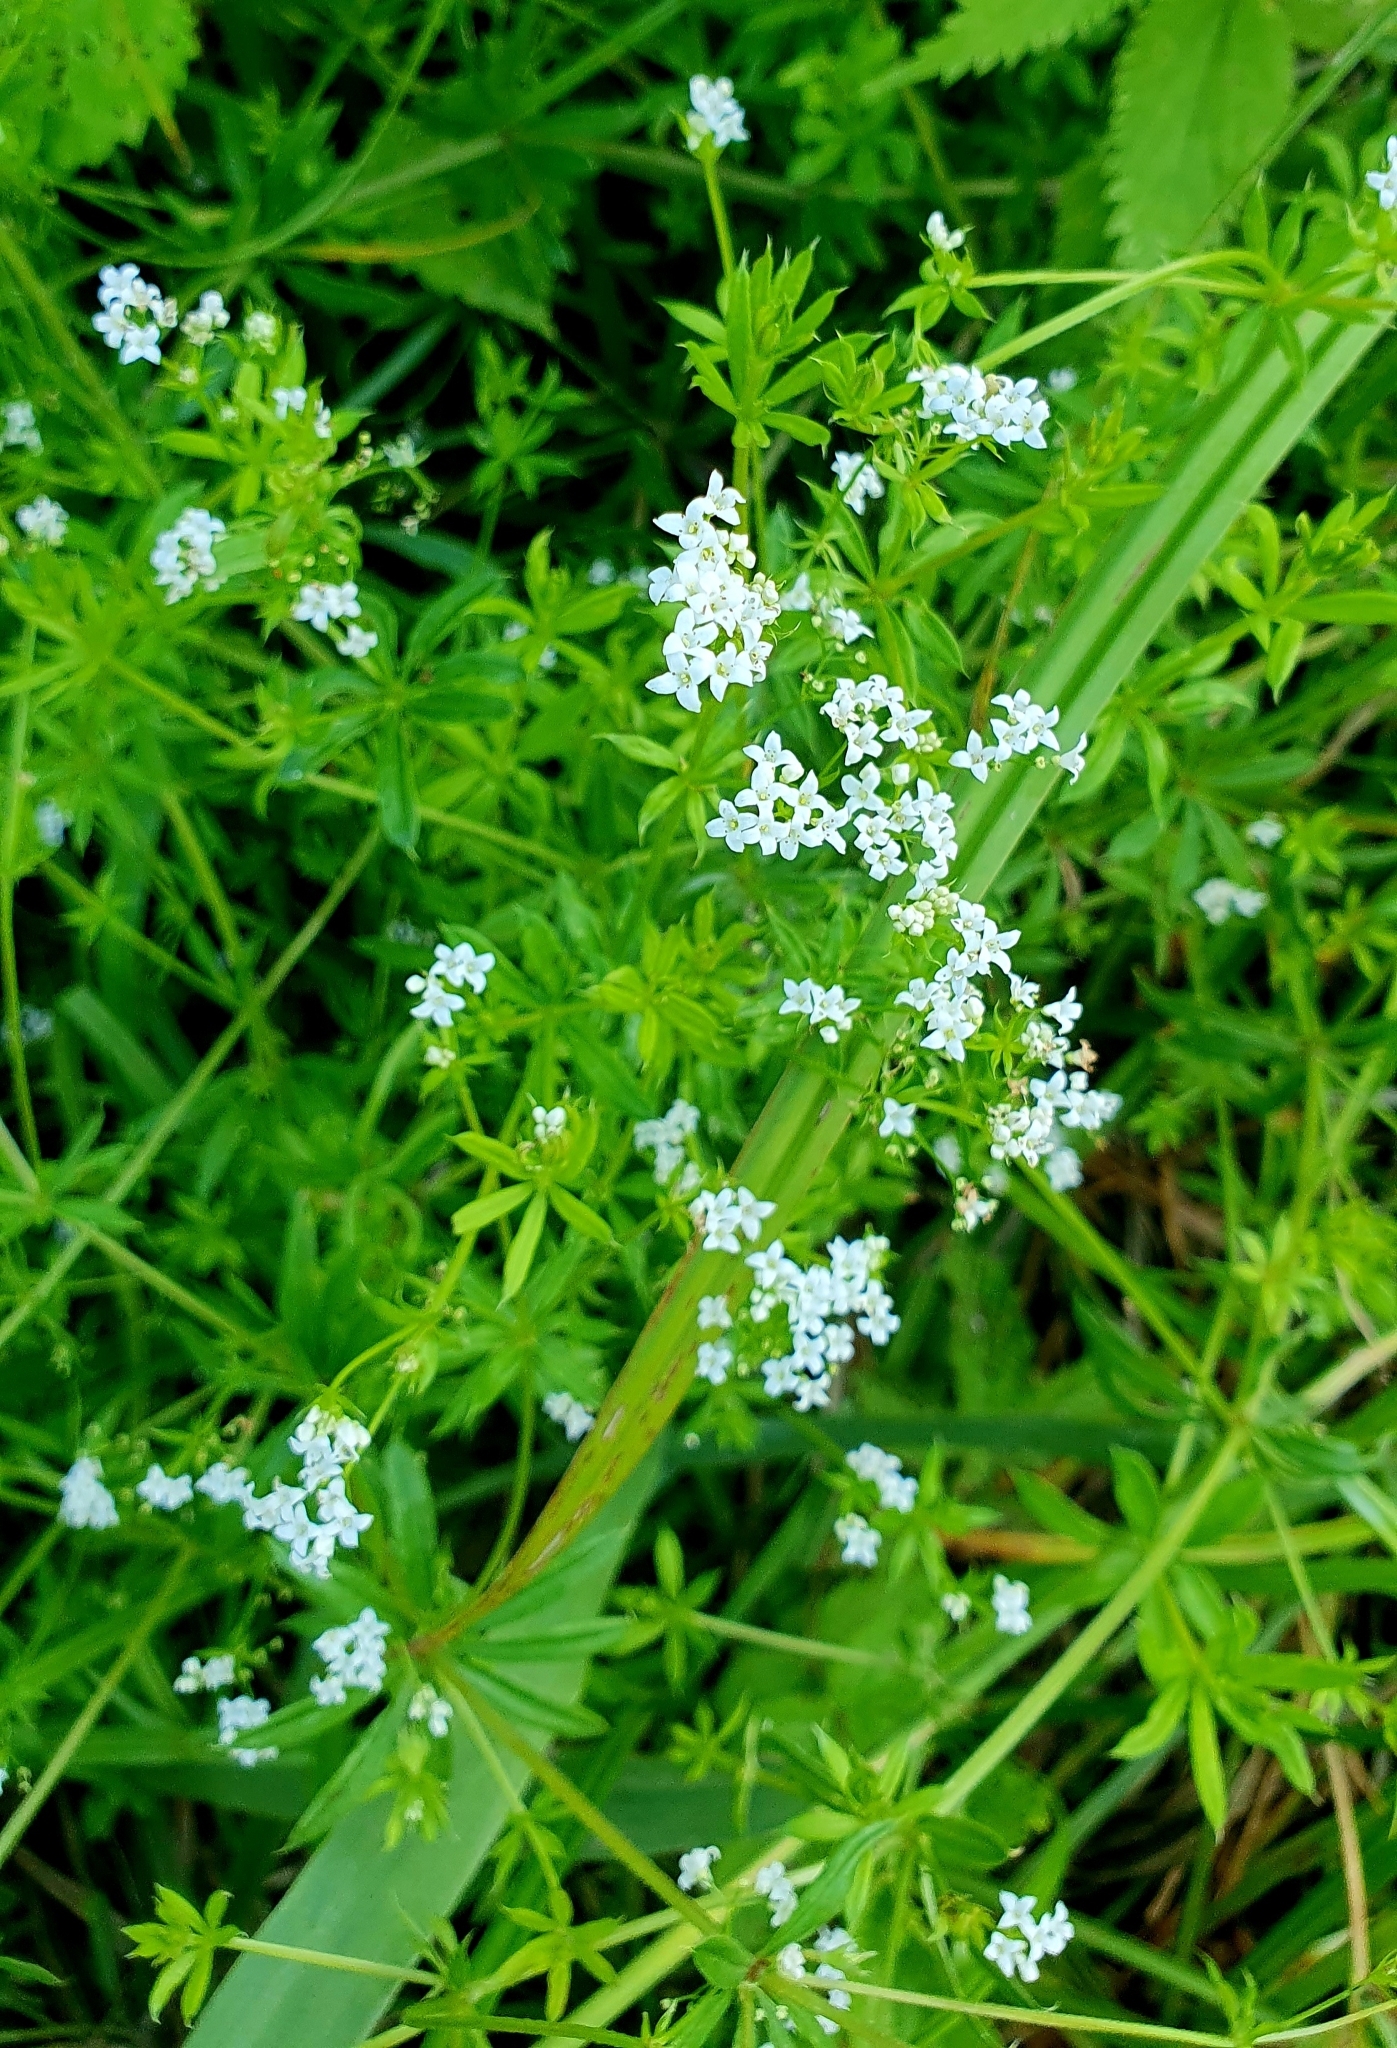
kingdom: Plantae
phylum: Tracheophyta
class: Magnoliopsida
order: Gentianales
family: Rubiaceae
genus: Galium
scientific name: Galium rivale
